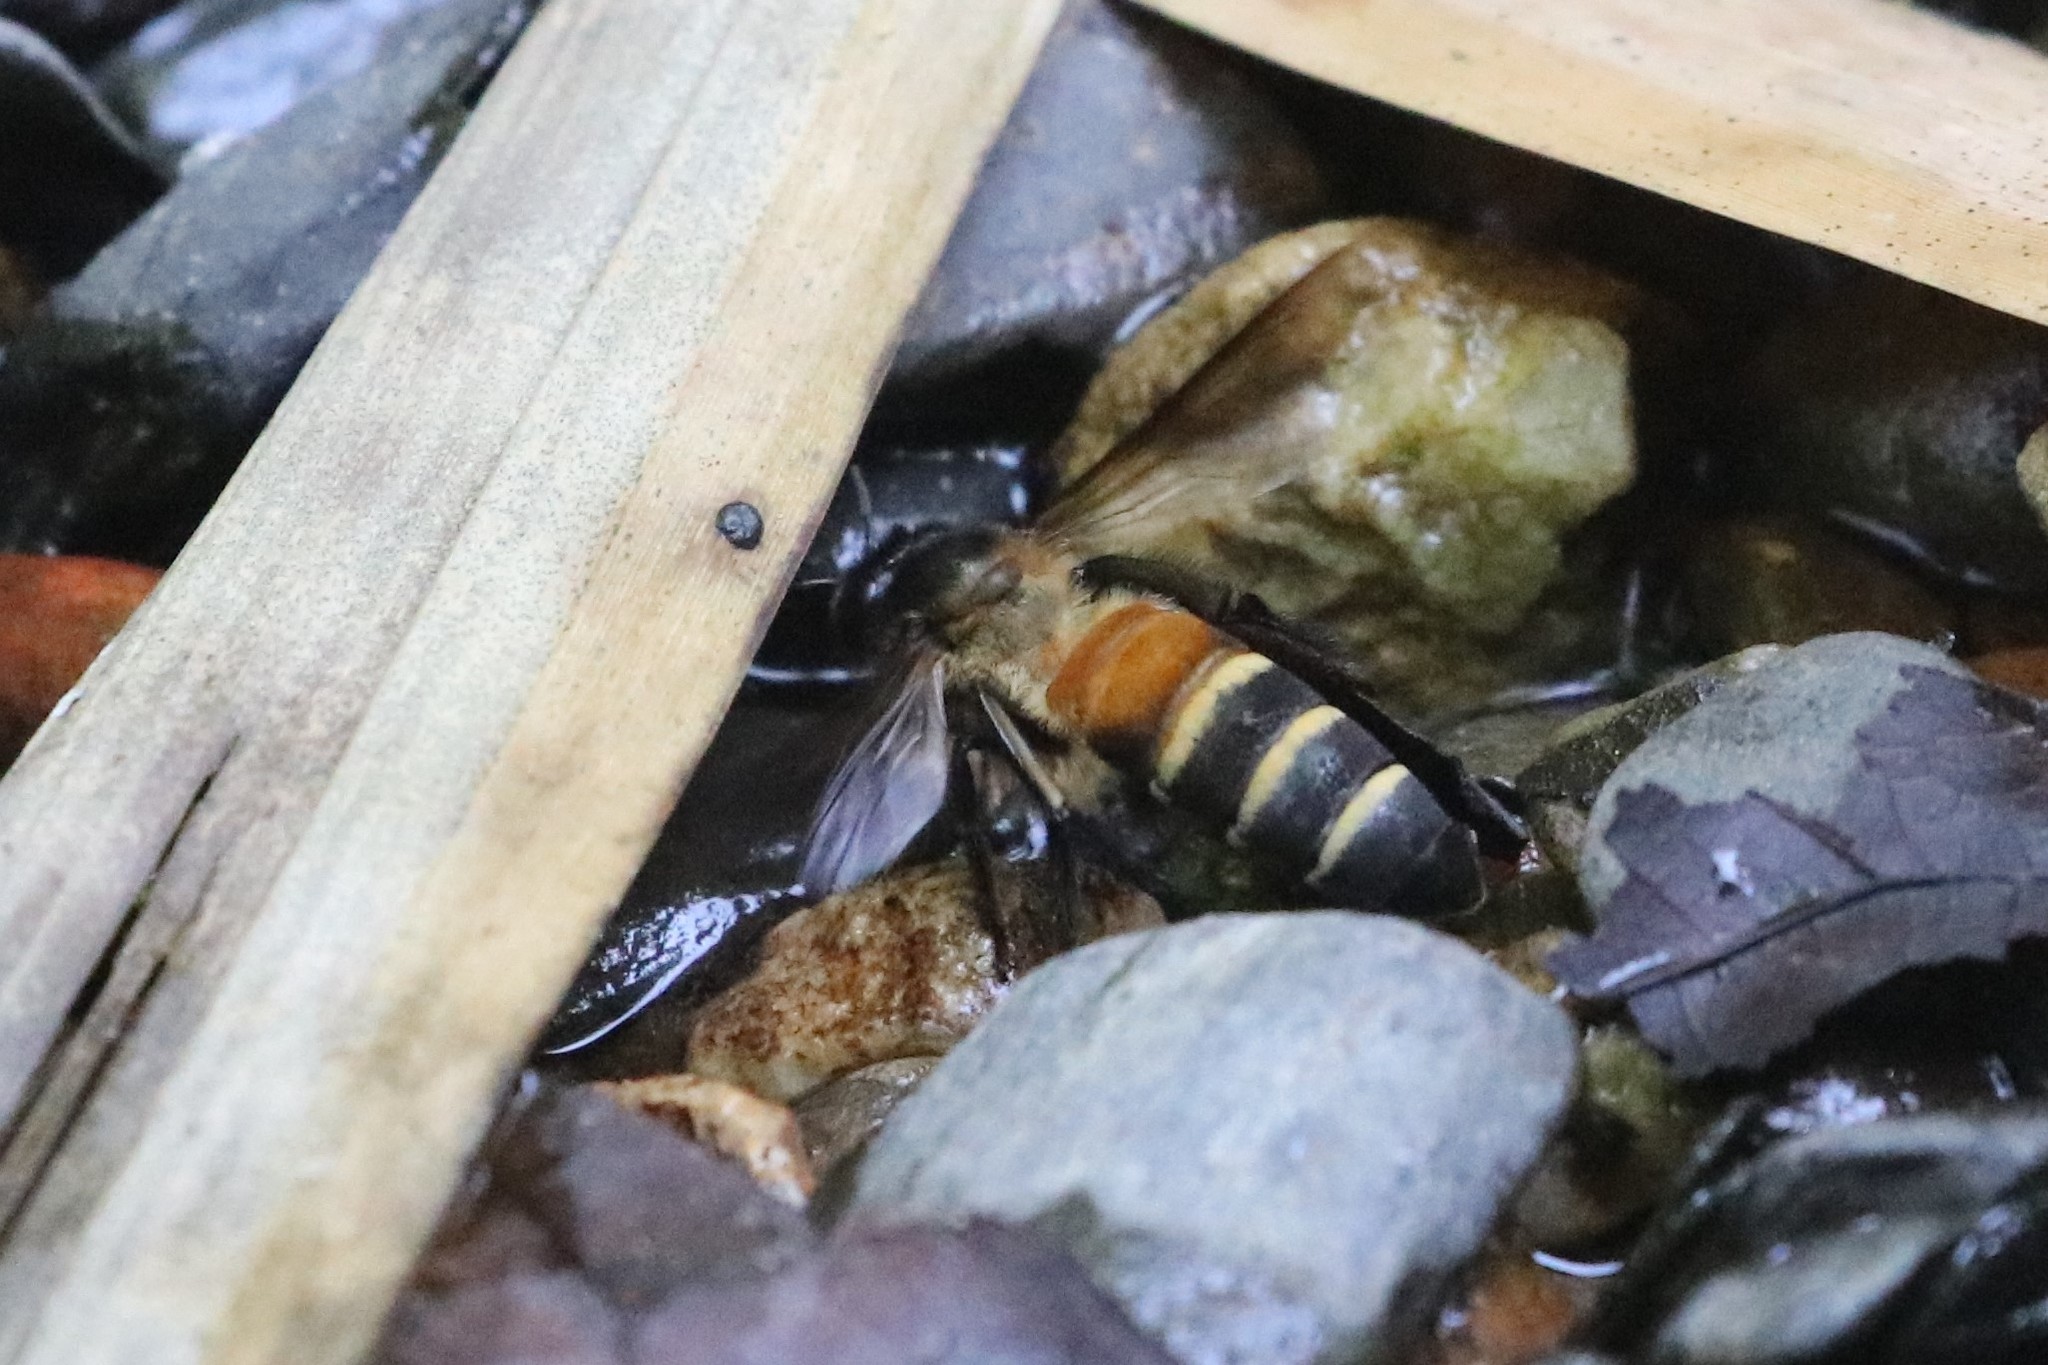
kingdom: Animalia
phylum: Arthropoda
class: Insecta
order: Hymenoptera
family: Apidae
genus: Apis
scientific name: Apis dorsata
